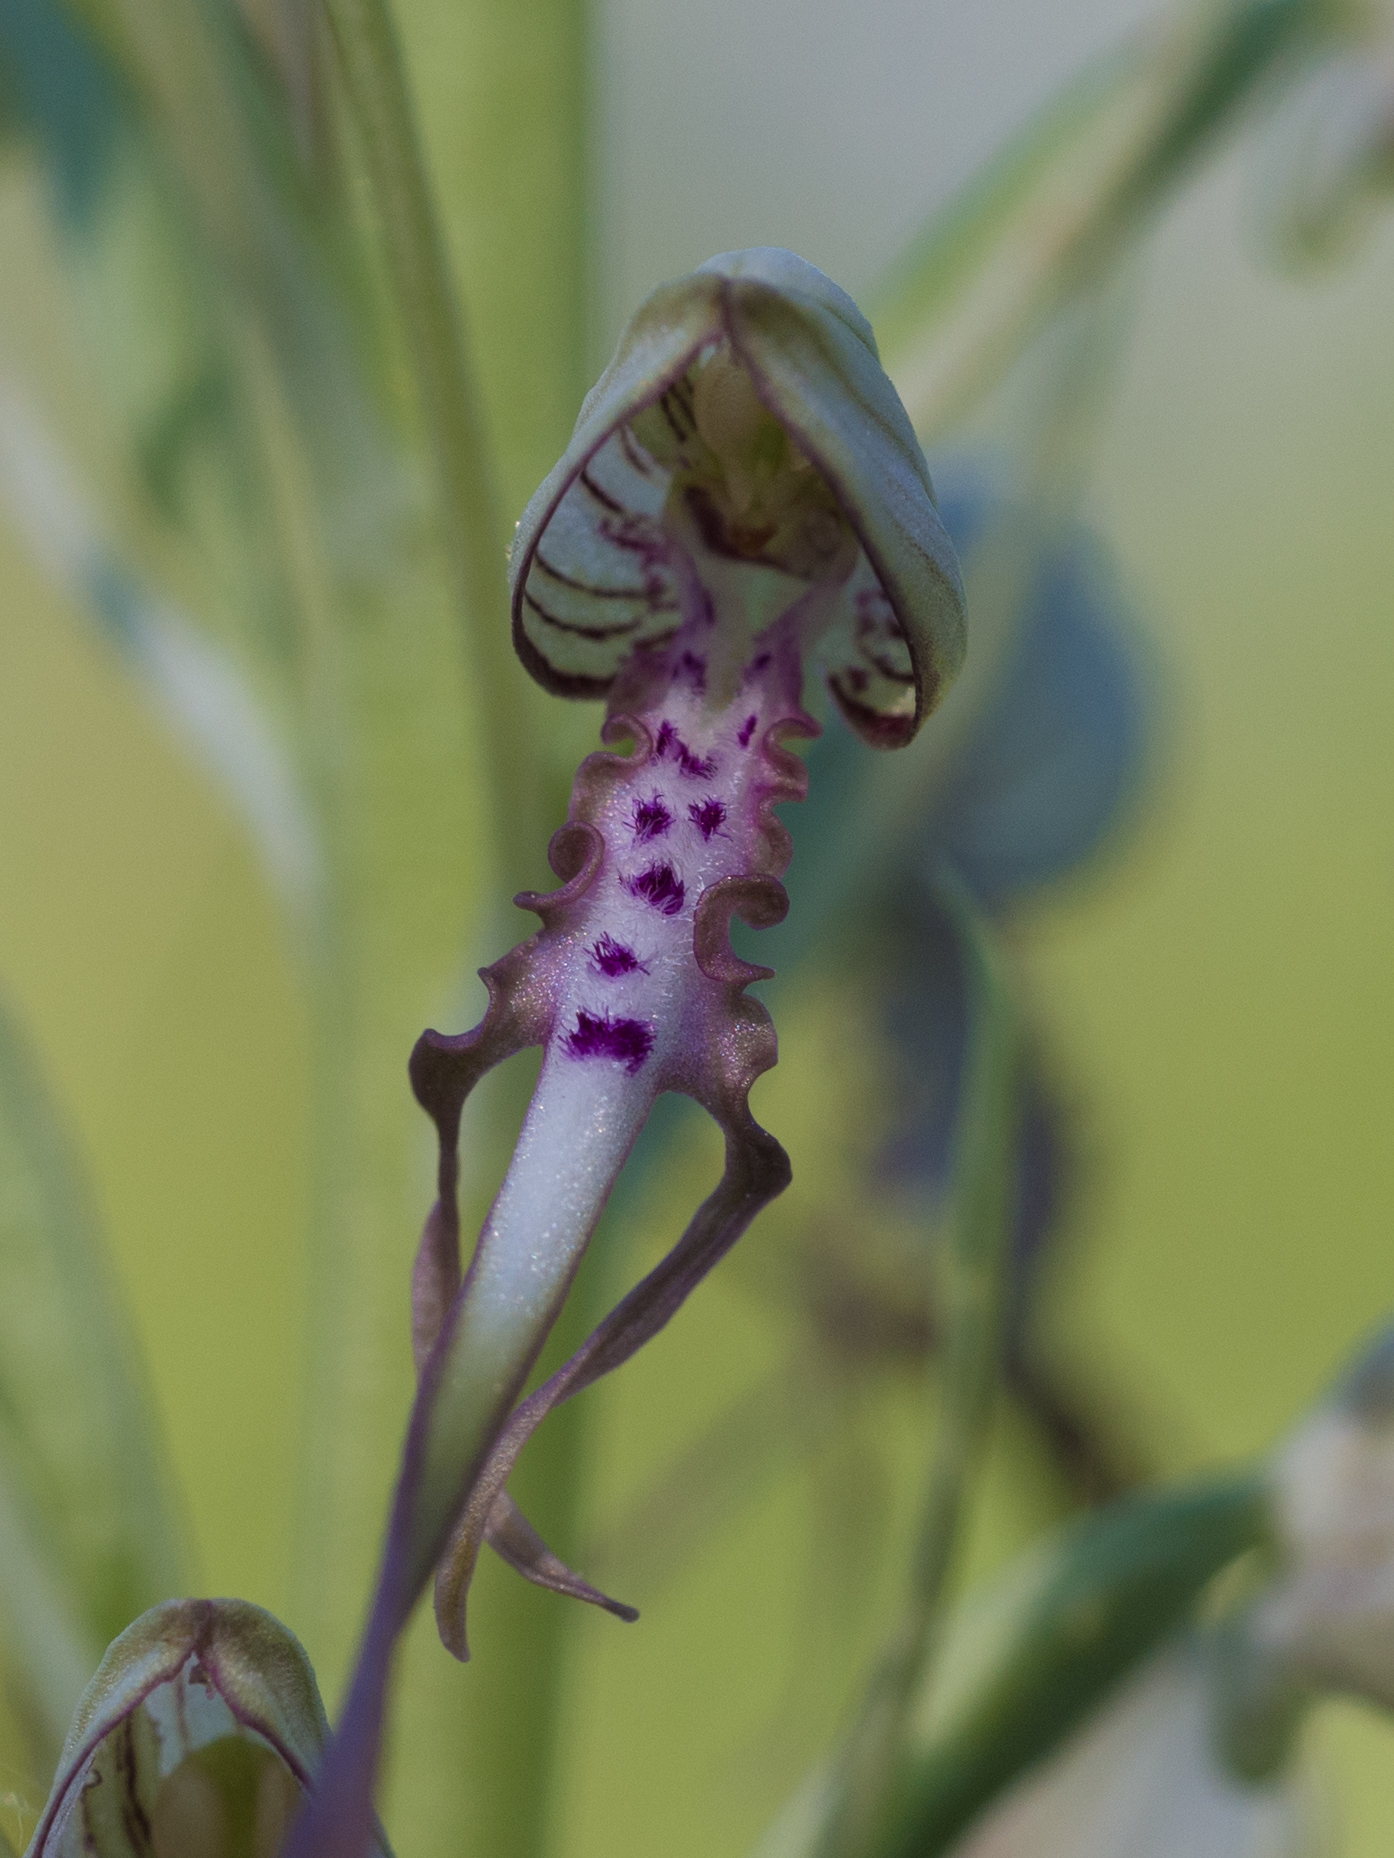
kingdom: Plantae
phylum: Tracheophyta
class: Liliopsida
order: Asparagales
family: Orchidaceae
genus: Himantoglossum
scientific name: Himantoglossum adriaticum
